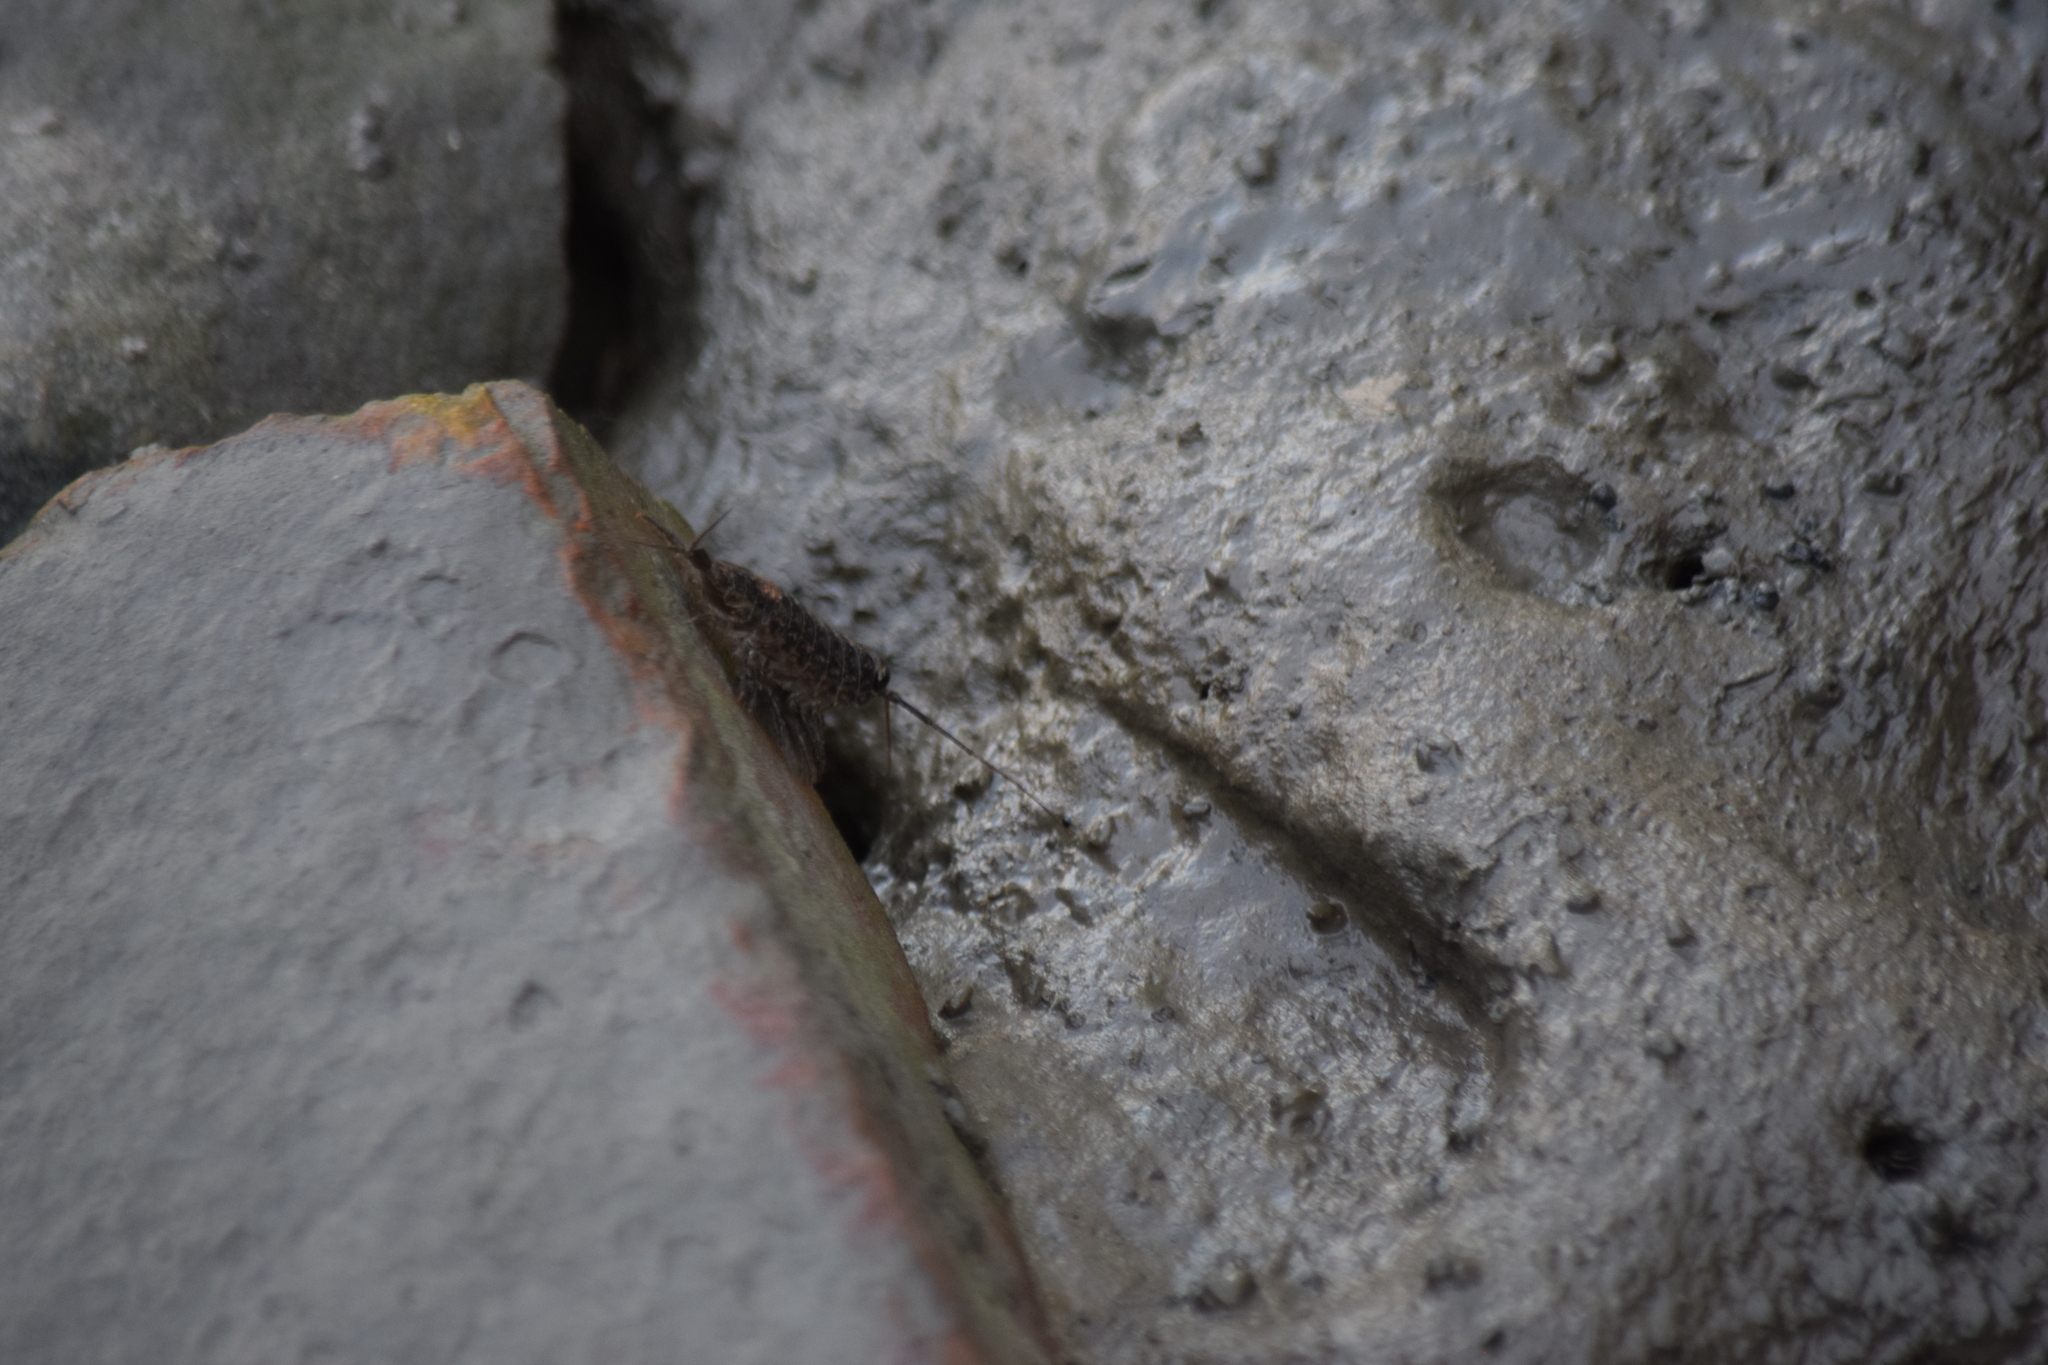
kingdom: Animalia
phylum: Arthropoda
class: Malacostraca
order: Isopoda
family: Ligiidae
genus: Ligia
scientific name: Ligia exotica
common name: Wharf roach
